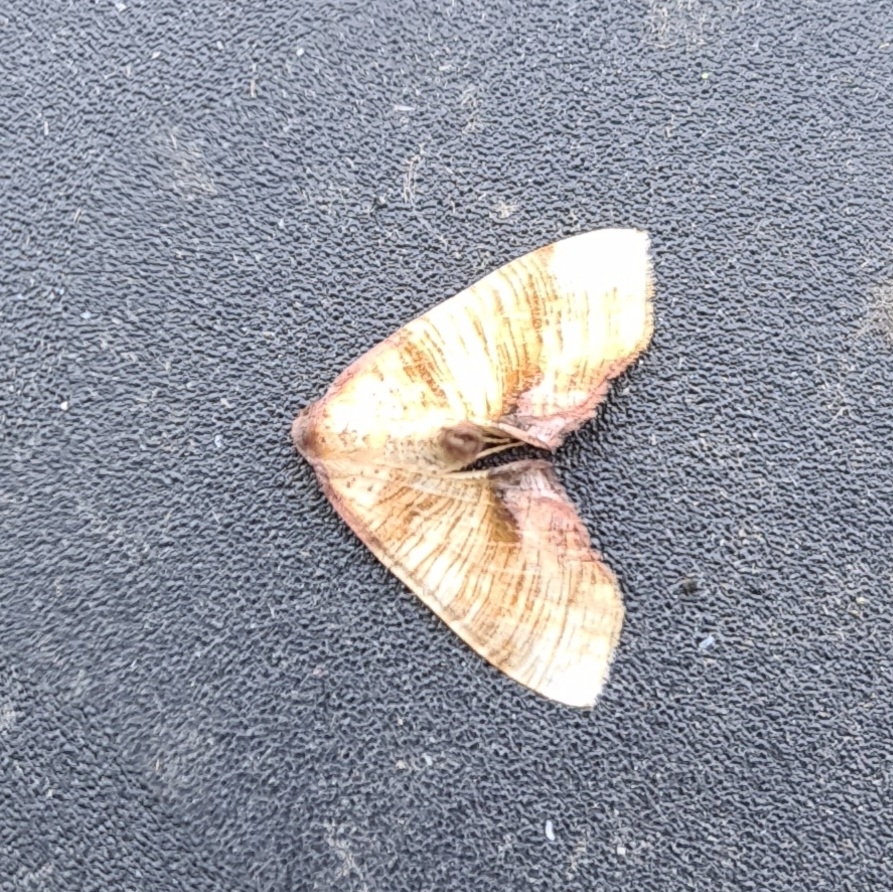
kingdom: Animalia
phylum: Arthropoda
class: Insecta
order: Lepidoptera
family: Geometridae
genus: Plagodis
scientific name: Plagodis dolabraria
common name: Scorched wing
